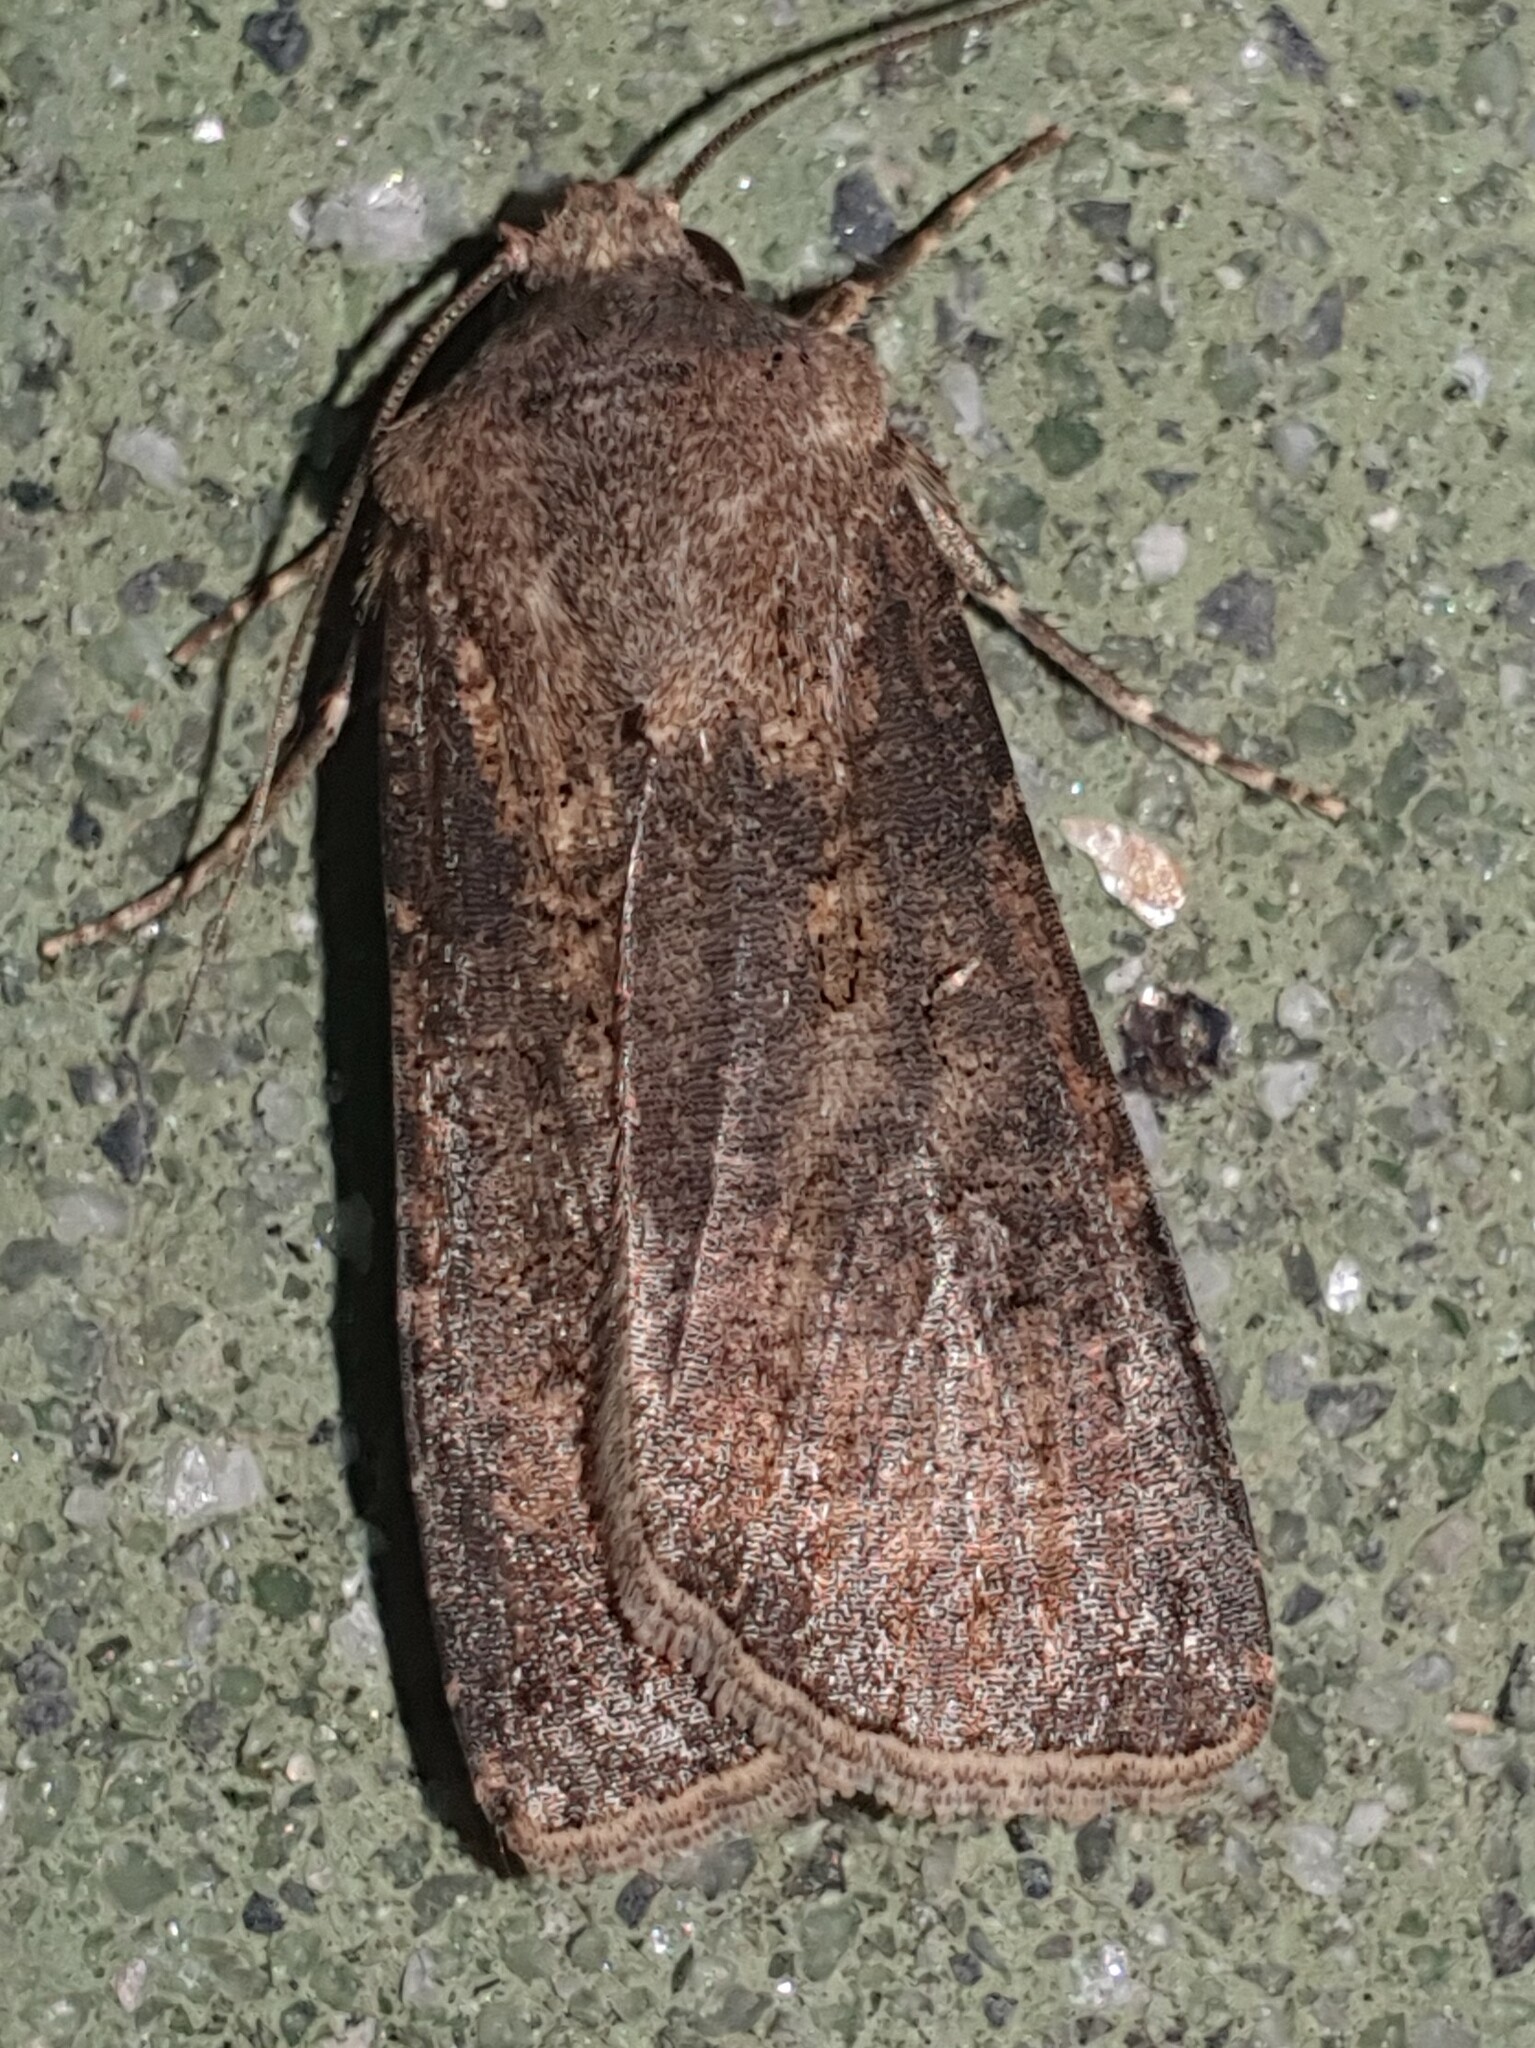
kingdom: Animalia
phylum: Arthropoda
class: Insecta
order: Lepidoptera
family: Noctuidae
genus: Agrotis
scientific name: Agrotis segetum
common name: Turnip moth
